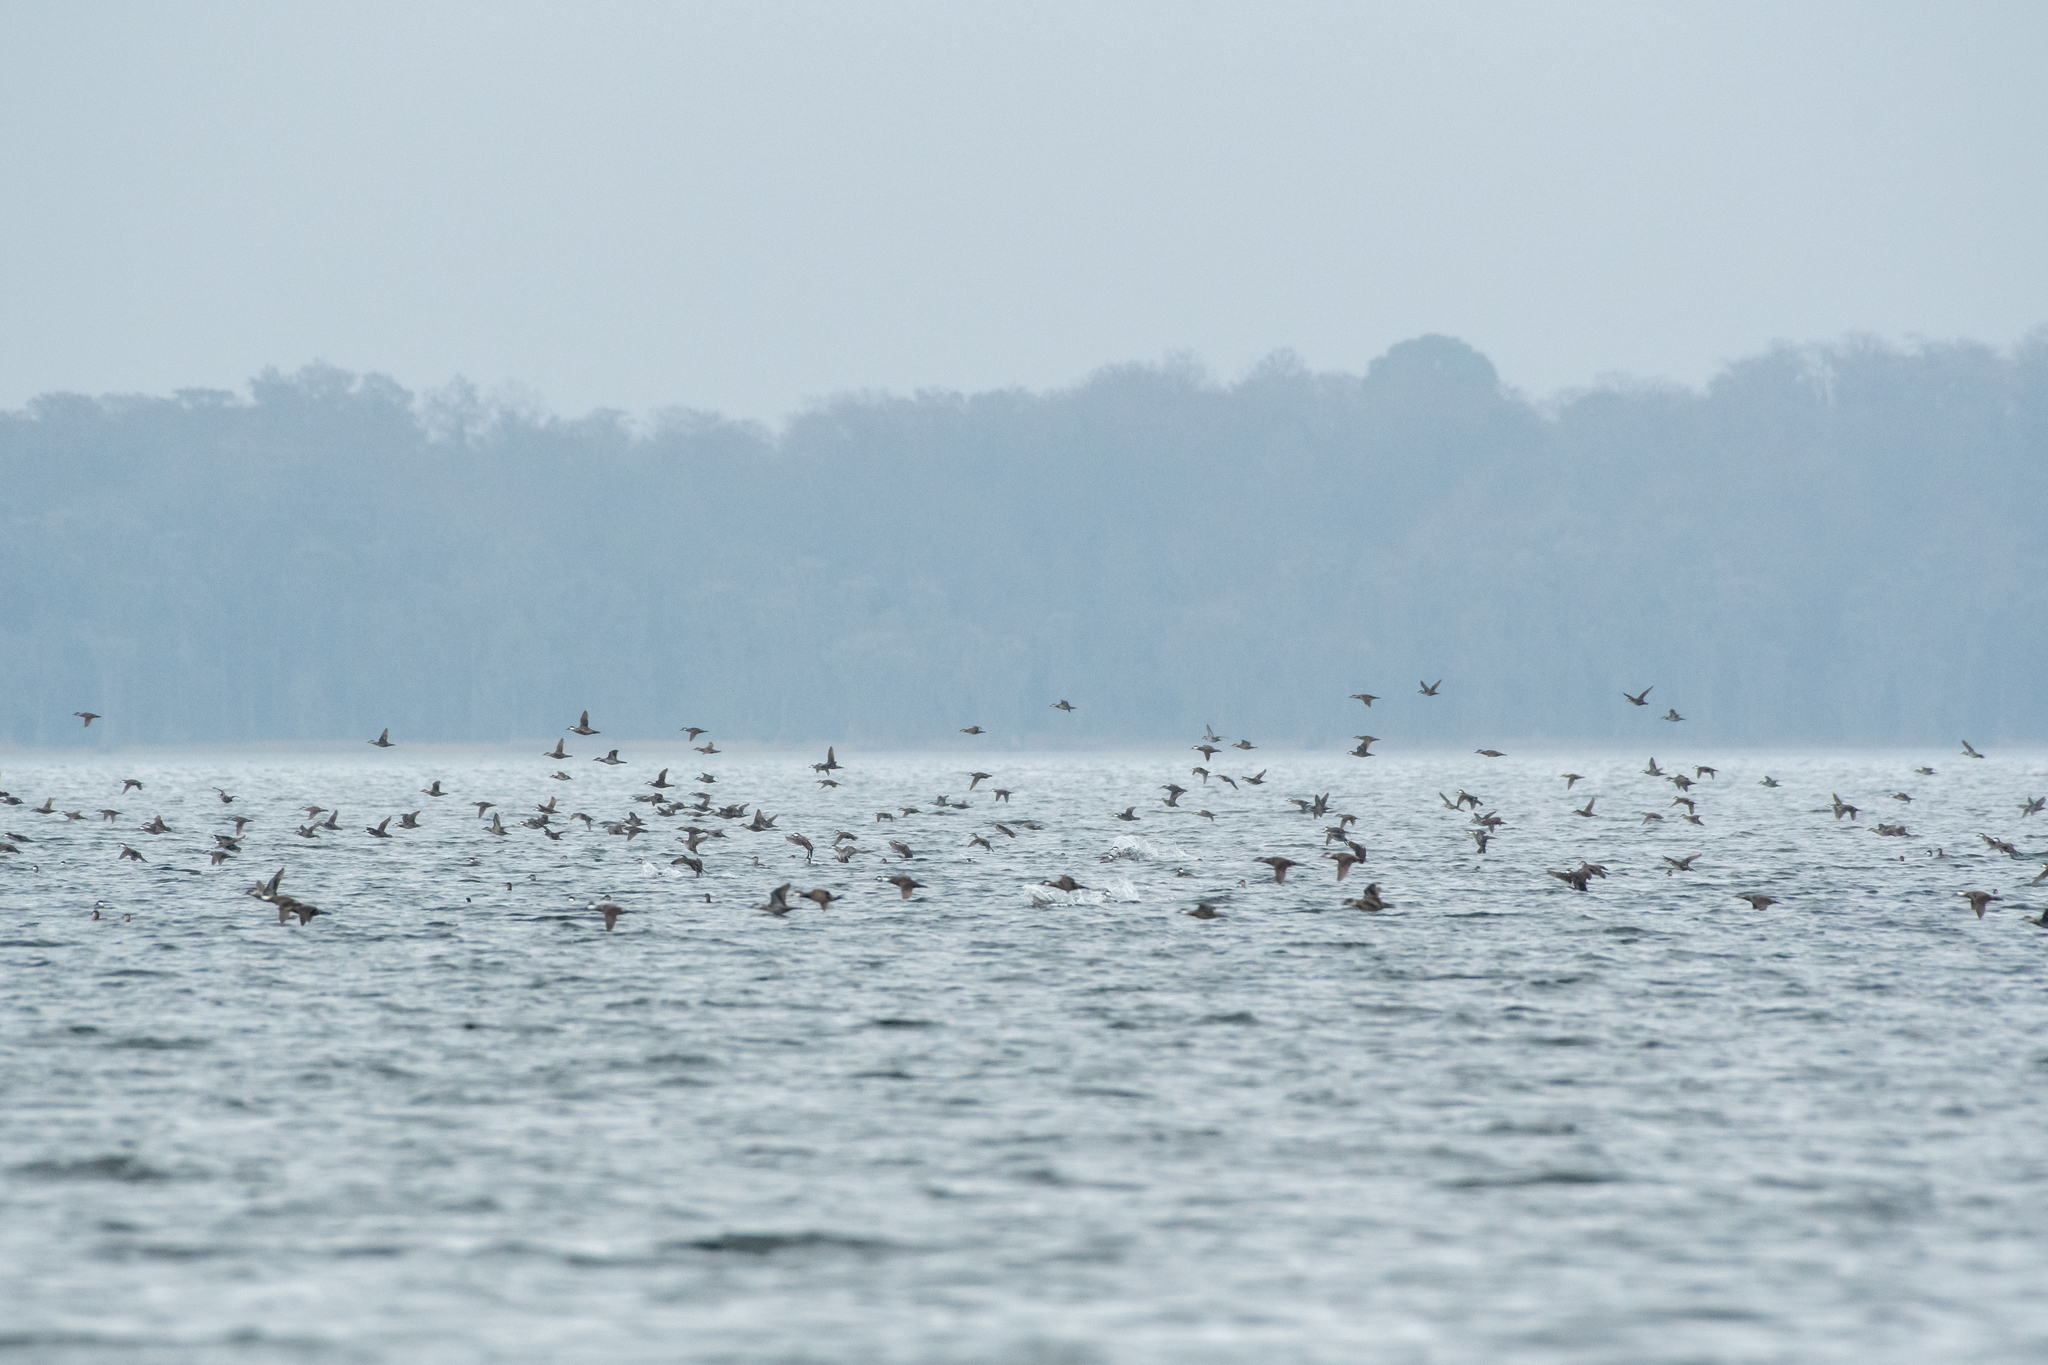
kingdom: Animalia
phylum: Chordata
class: Aves
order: Anseriformes
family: Anatidae
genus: Oxyura
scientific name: Oxyura jamaicensis
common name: Ruddy duck
